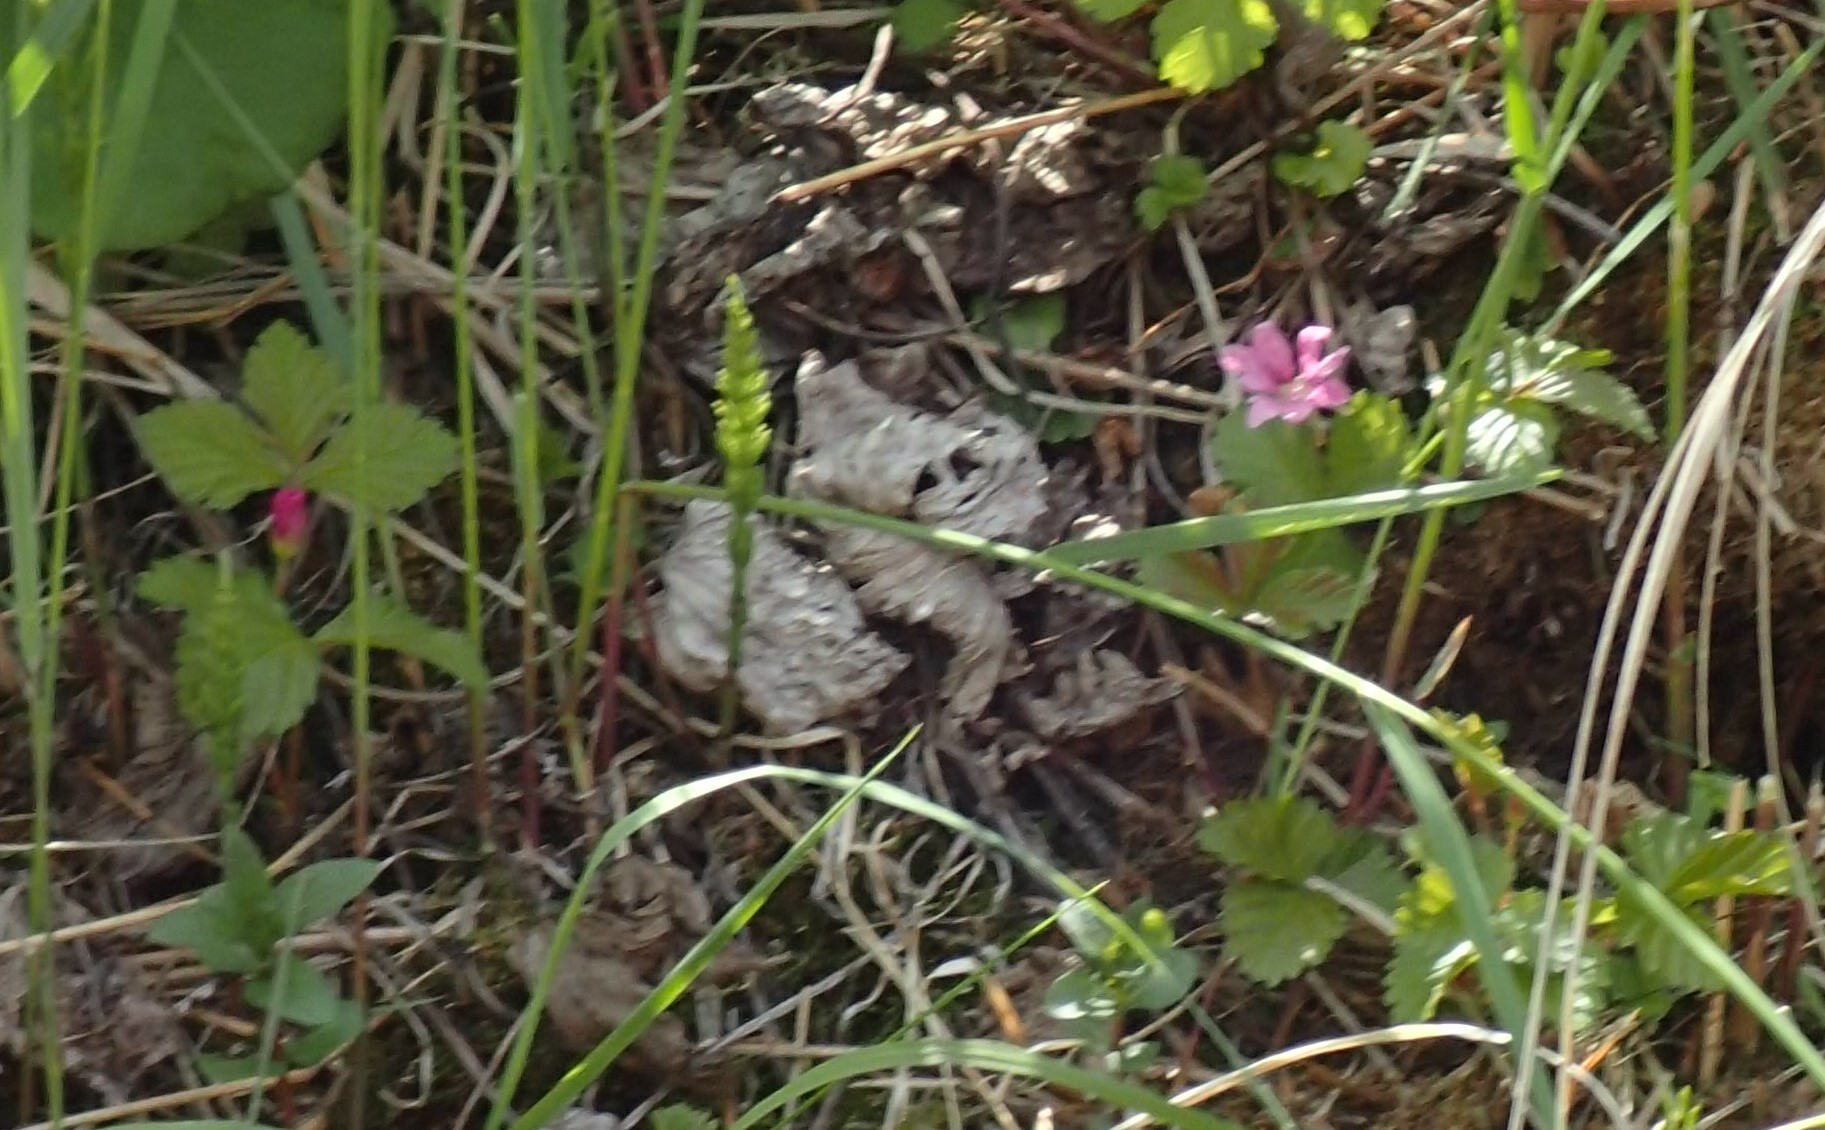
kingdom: Plantae
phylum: Tracheophyta
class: Magnoliopsida
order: Rosales
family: Rosaceae
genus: Rubus
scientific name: Rubus arcticus
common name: Arctic bramble
